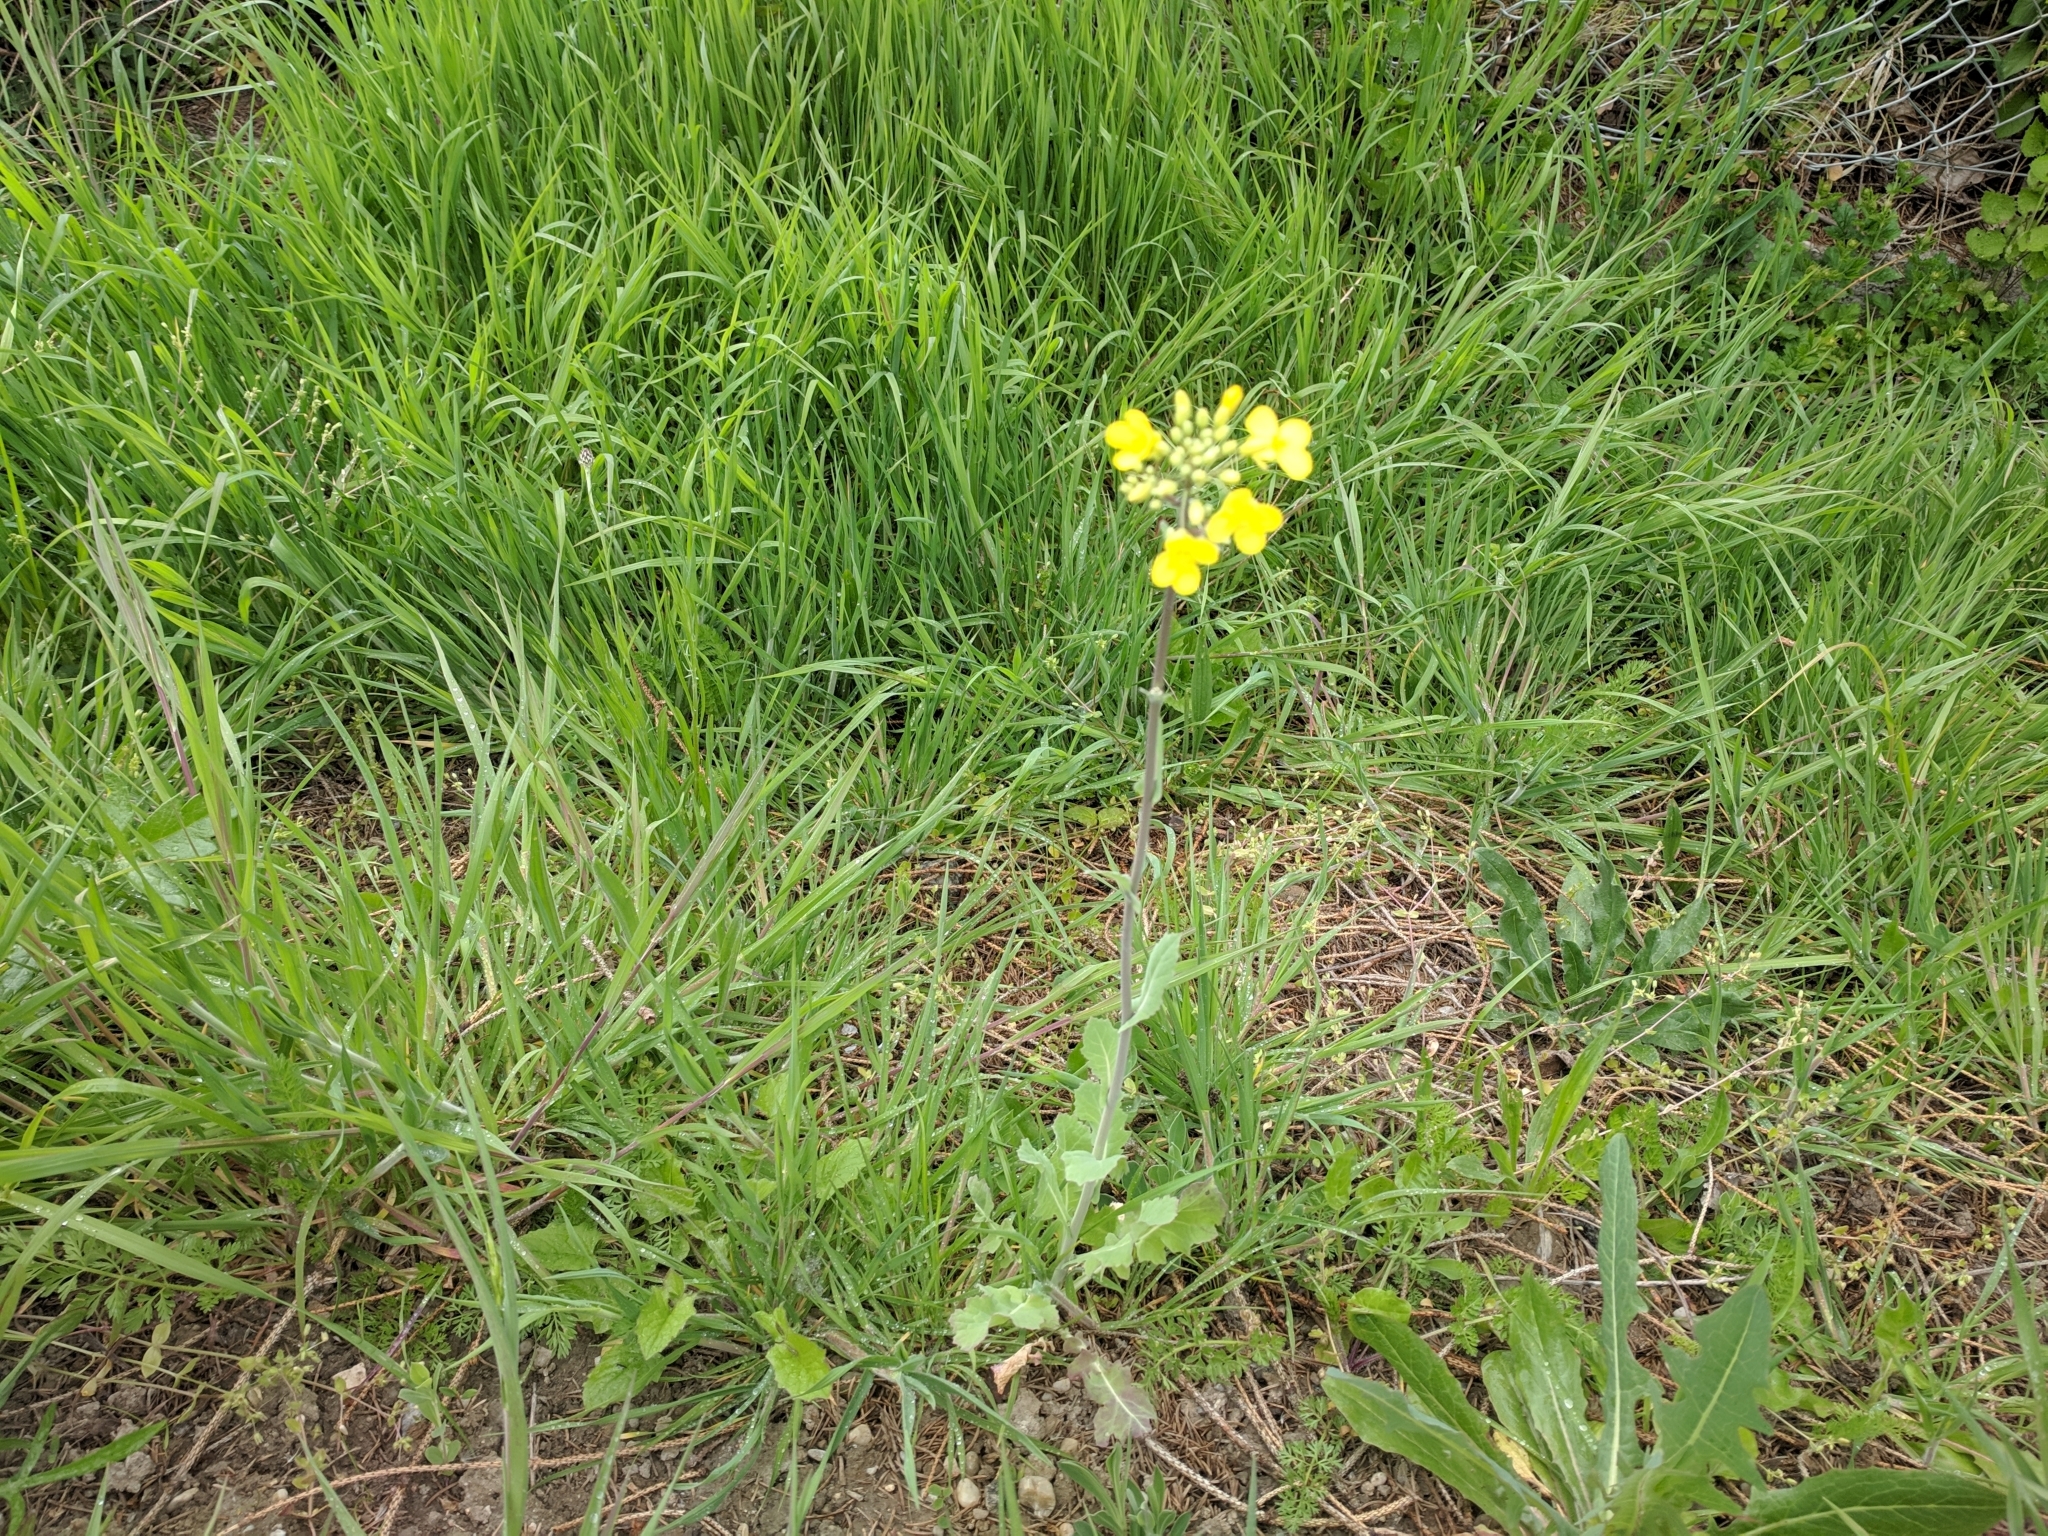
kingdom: Plantae
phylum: Tracheophyta
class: Magnoliopsida
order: Brassicales
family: Brassicaceae
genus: Brassica
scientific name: Brassica napus
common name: Rape
